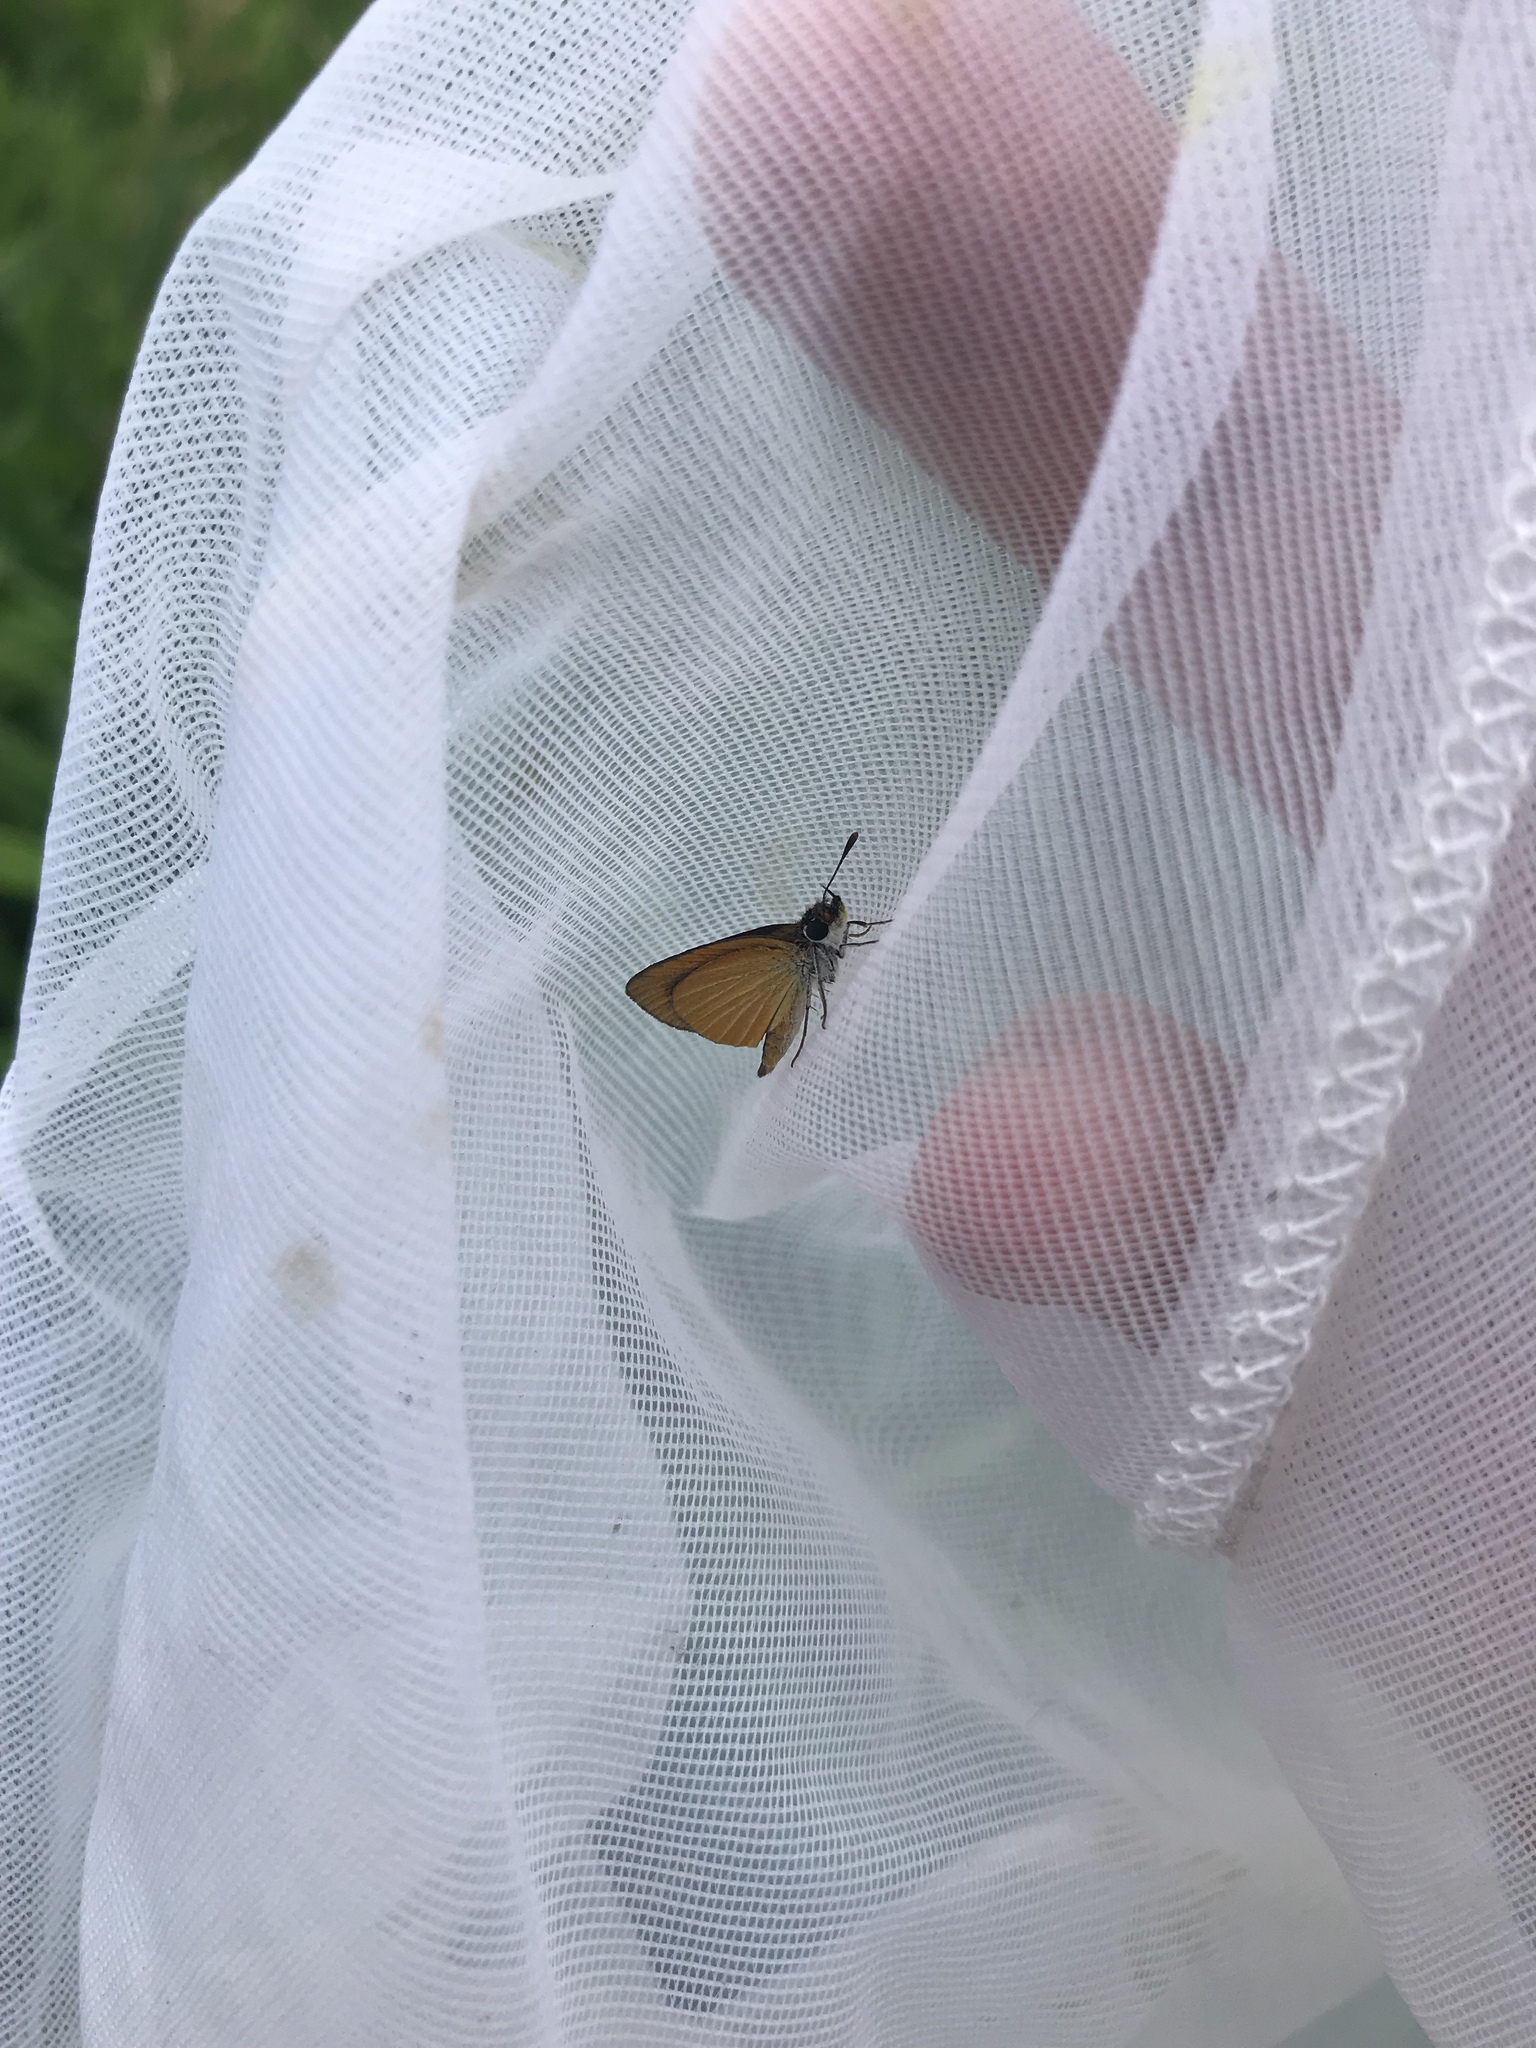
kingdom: Animalia
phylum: Arthropoda
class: Insecta
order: Lepidoptera
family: Hesperiidae
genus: Ancyloxypha
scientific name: Ancyloxypha numitor
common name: Least skipper
